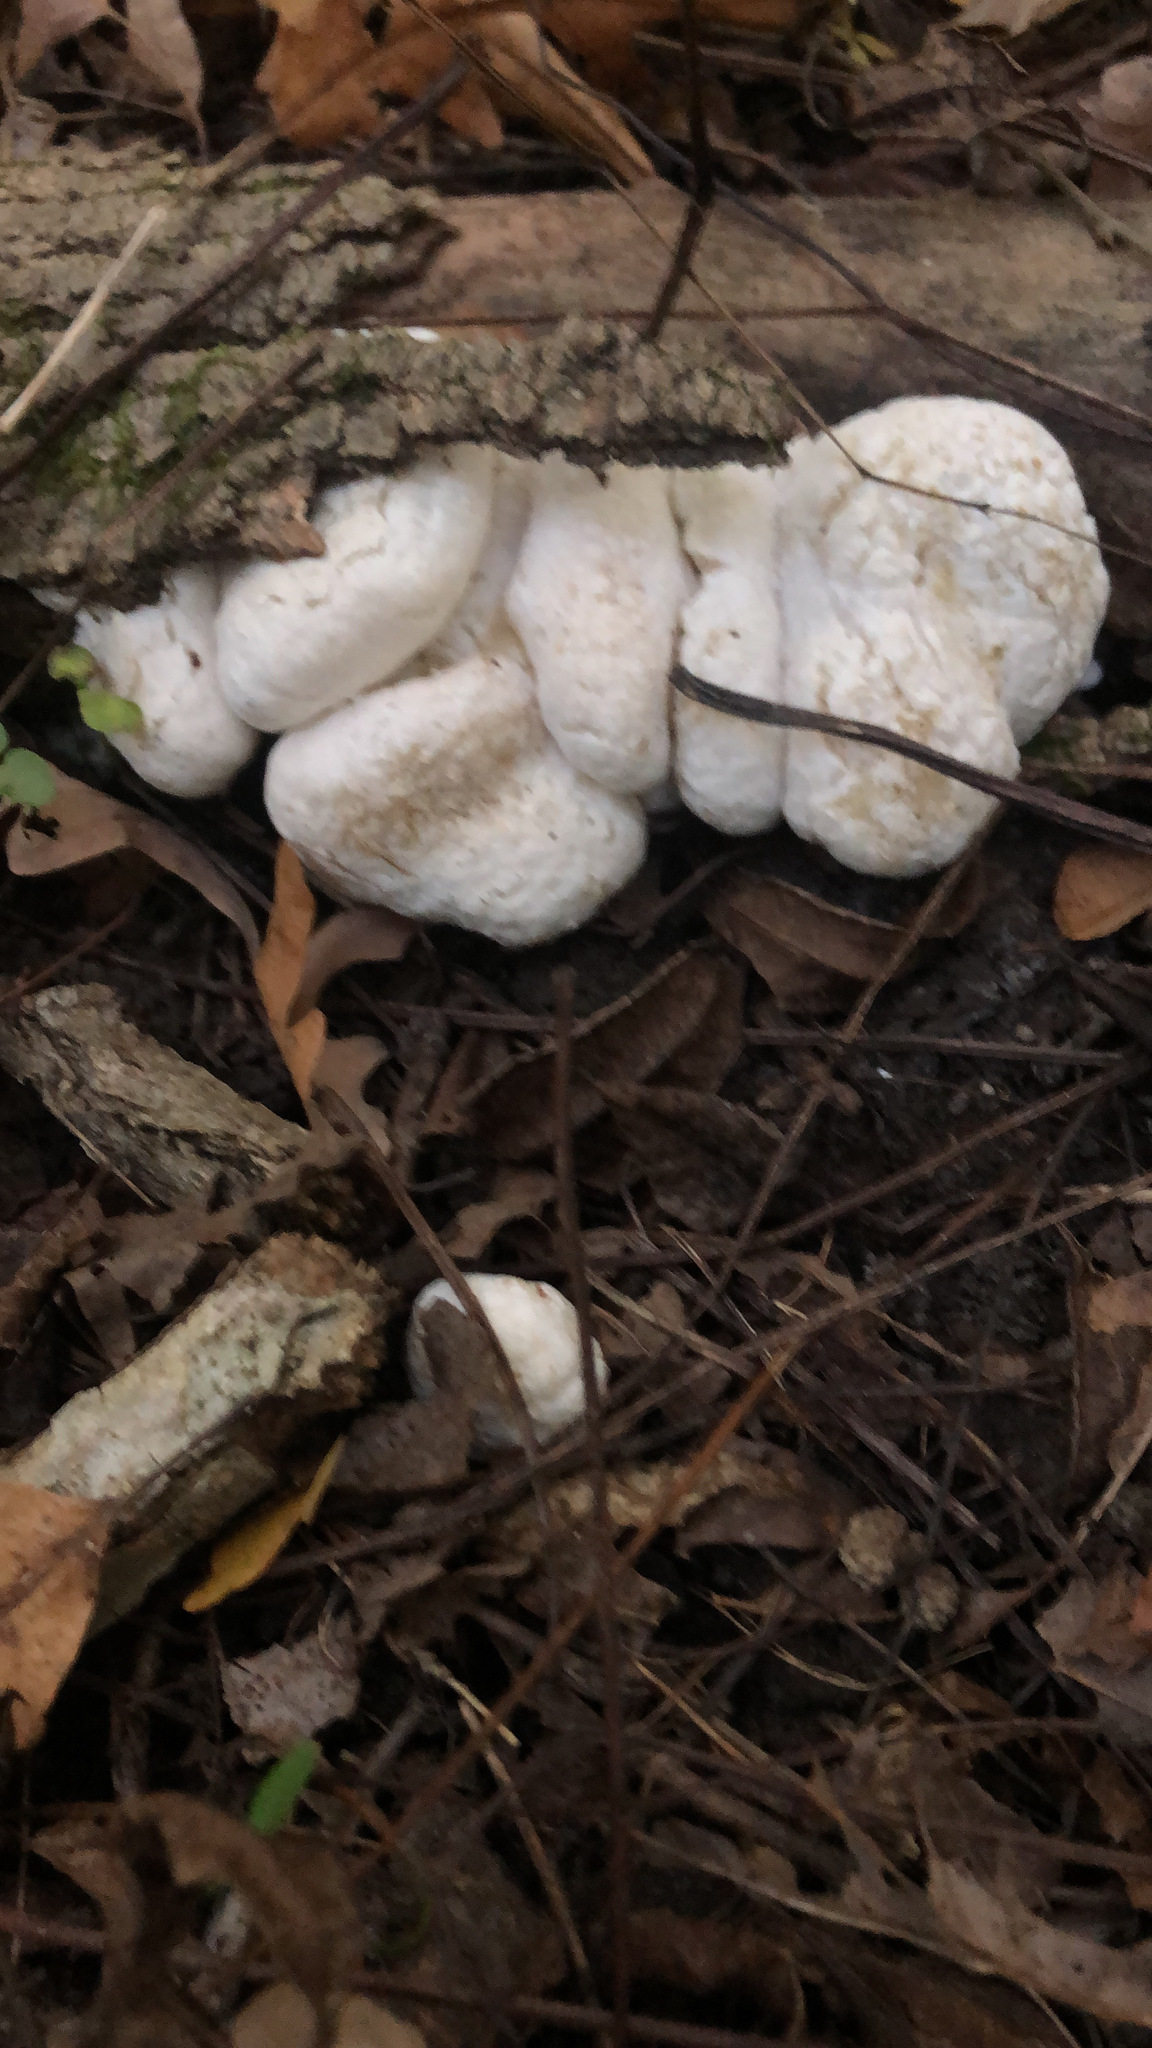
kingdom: Fungi
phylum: Basidiomycota
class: Agaricomycetes
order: Agaricales
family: Entolomataceae
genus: Entoloma
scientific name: Entoloma abortivum
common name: Aborted entoloma
